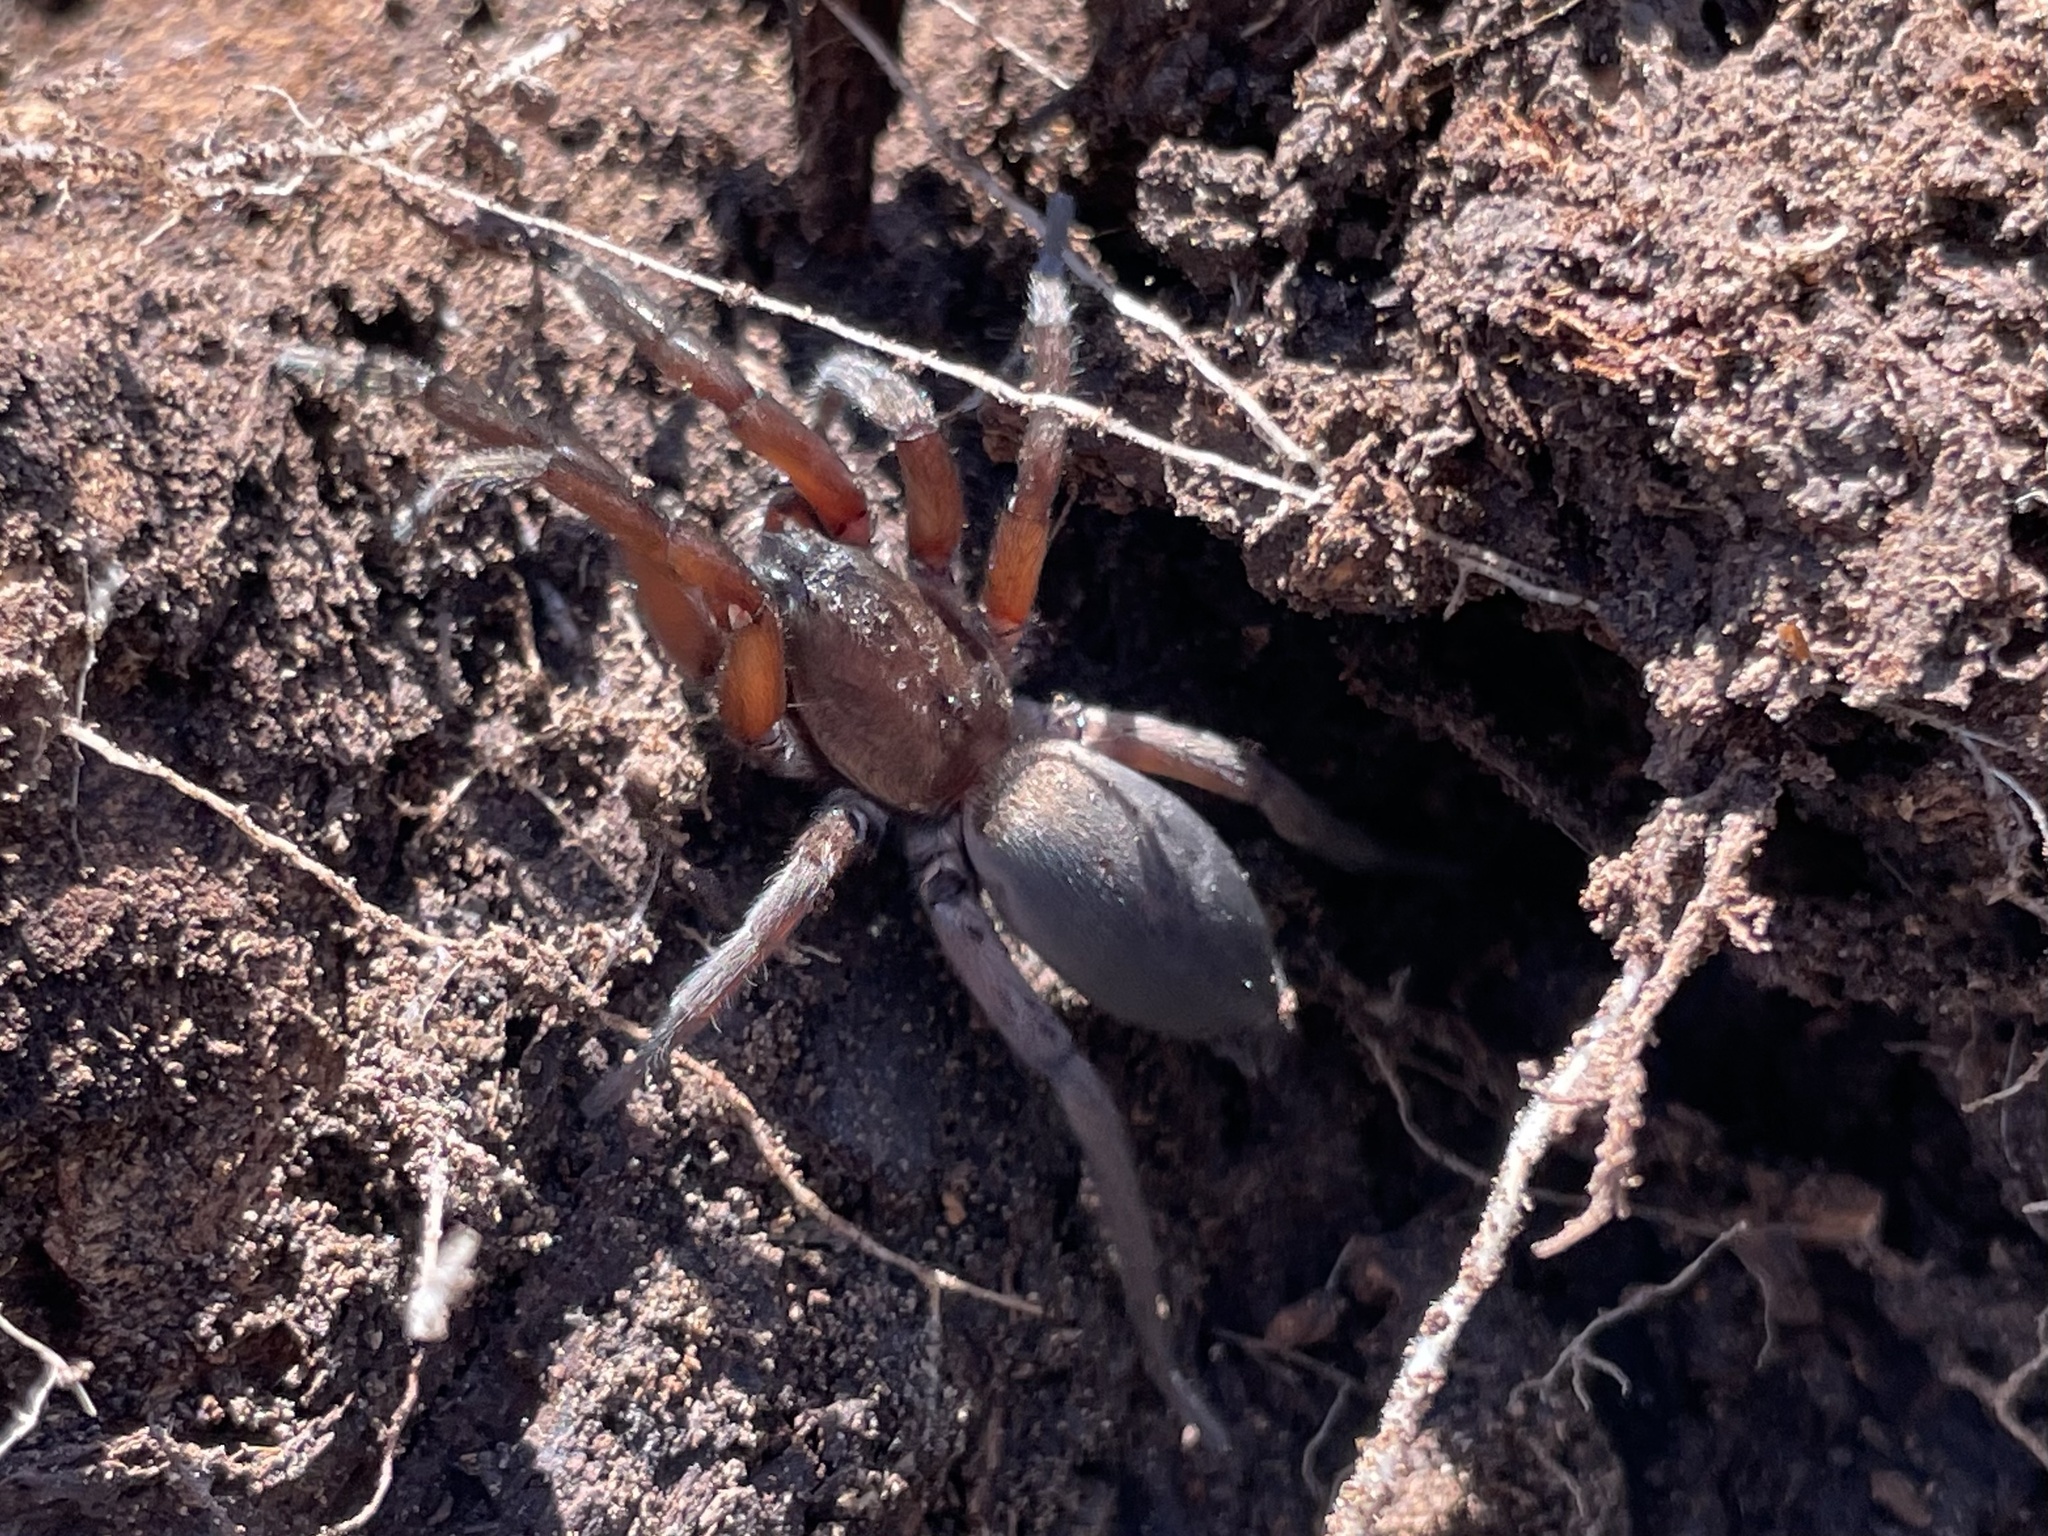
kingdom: Animalia
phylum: Arthropoda
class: Arachnida
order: Araneae
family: Miturgidae
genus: Teminius
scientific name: Teminius affinis
